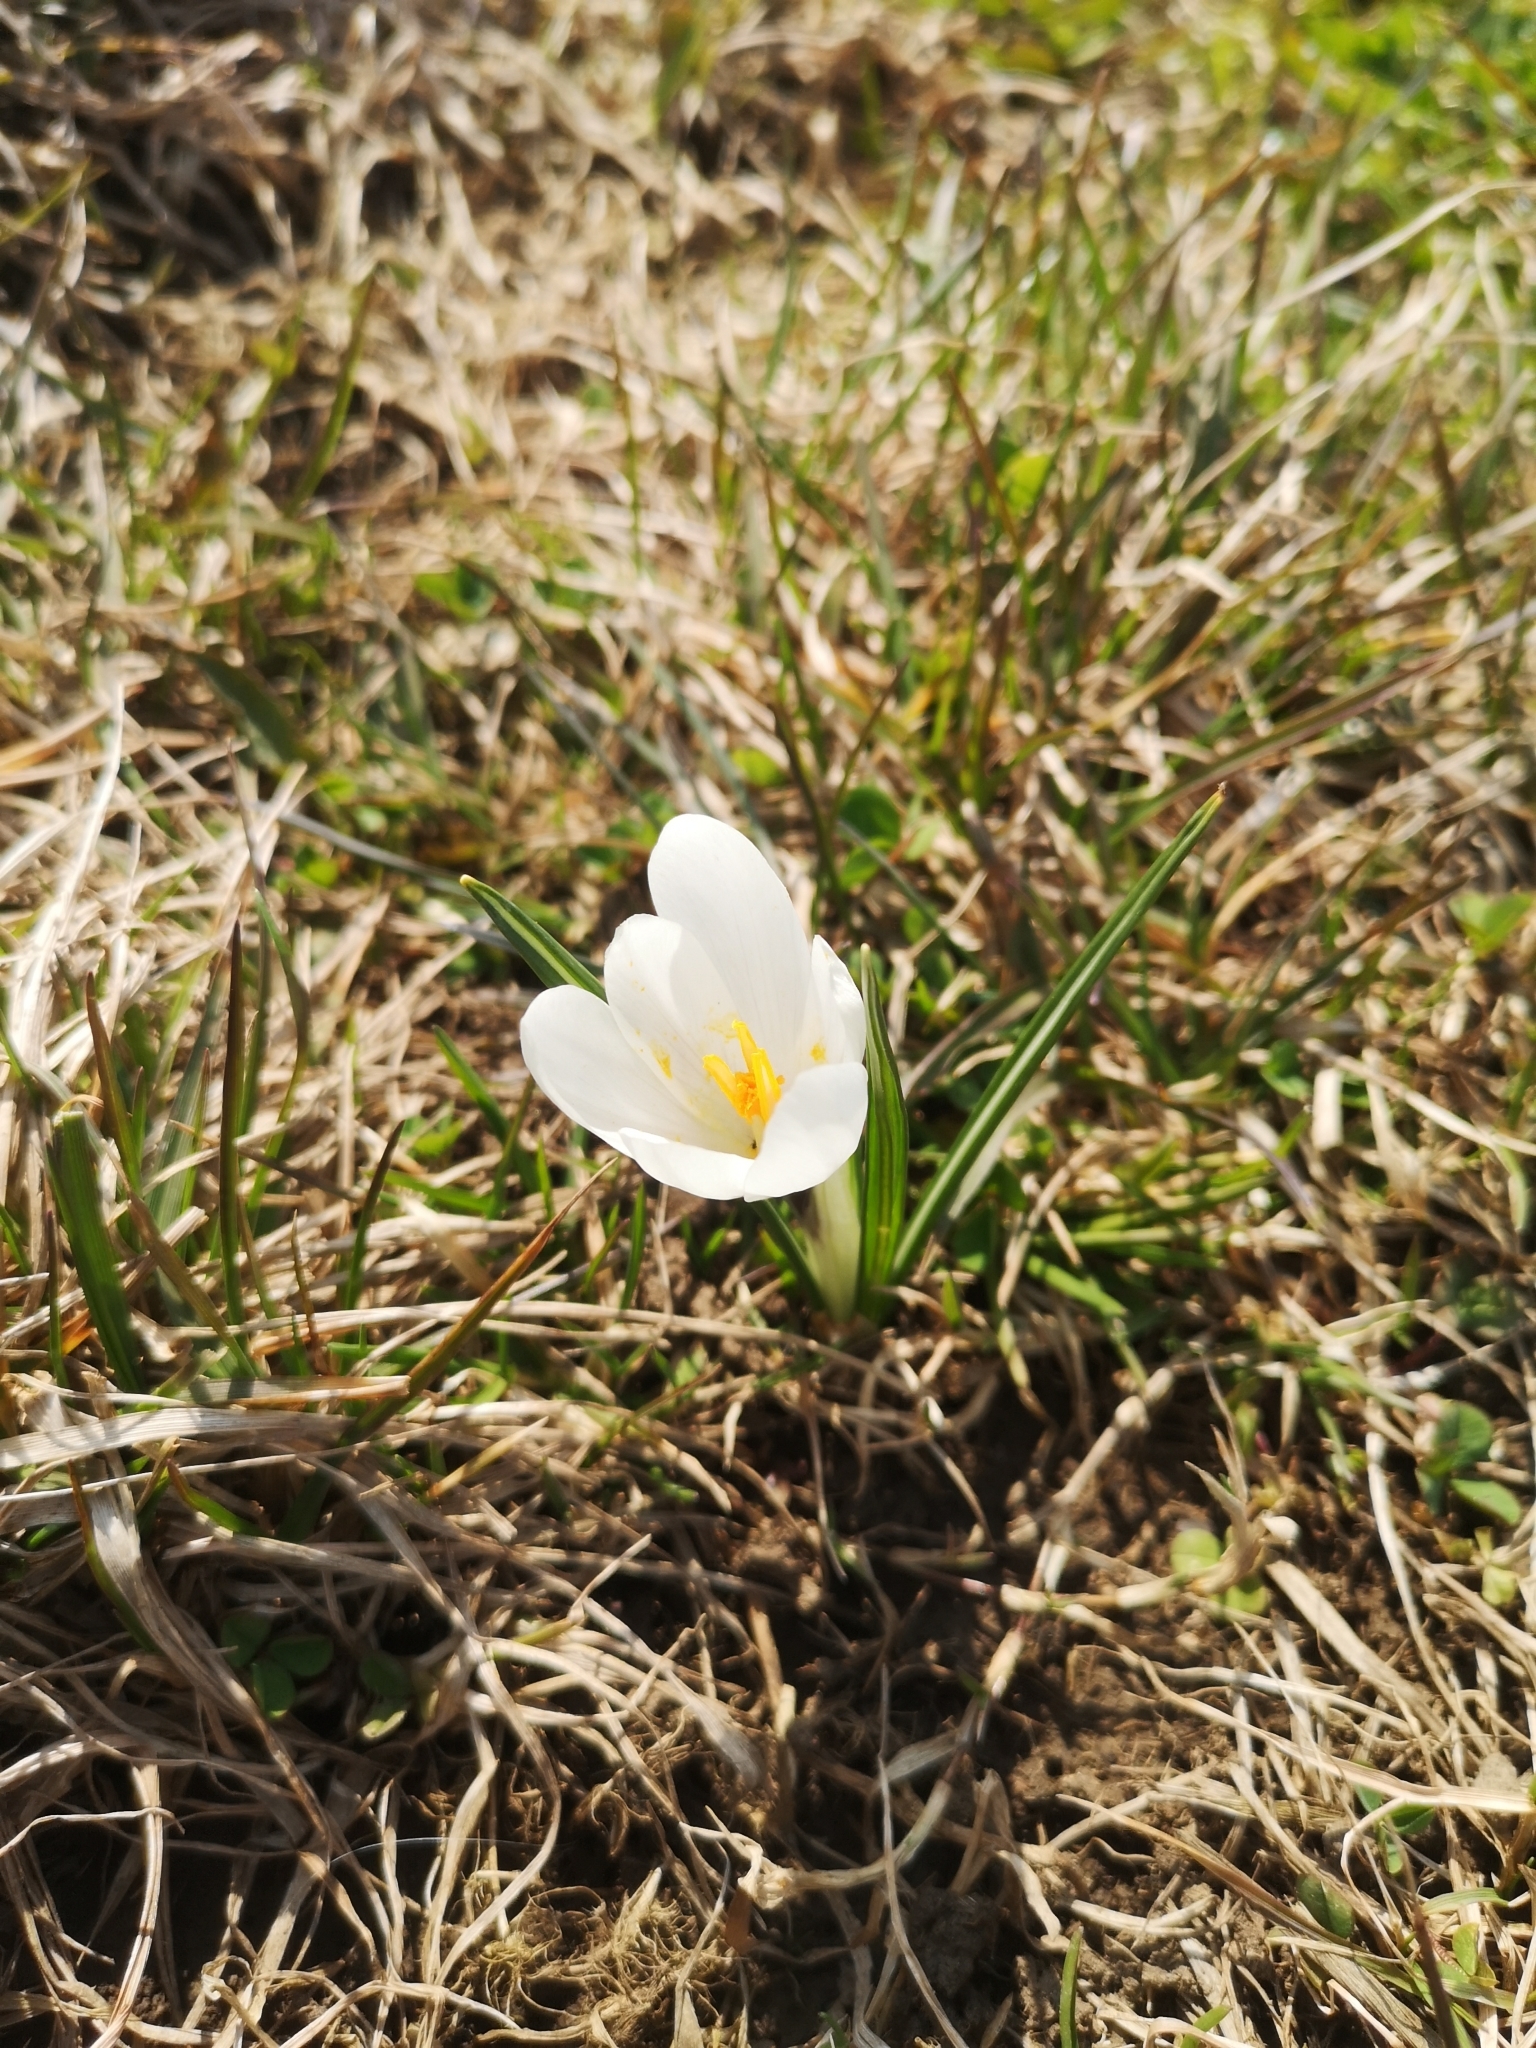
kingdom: Plantae
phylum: Tracheophyta
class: Liliopsida
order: Asparagales
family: Iridaceae
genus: Crocus
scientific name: Crocus vernus
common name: Spring crocus
